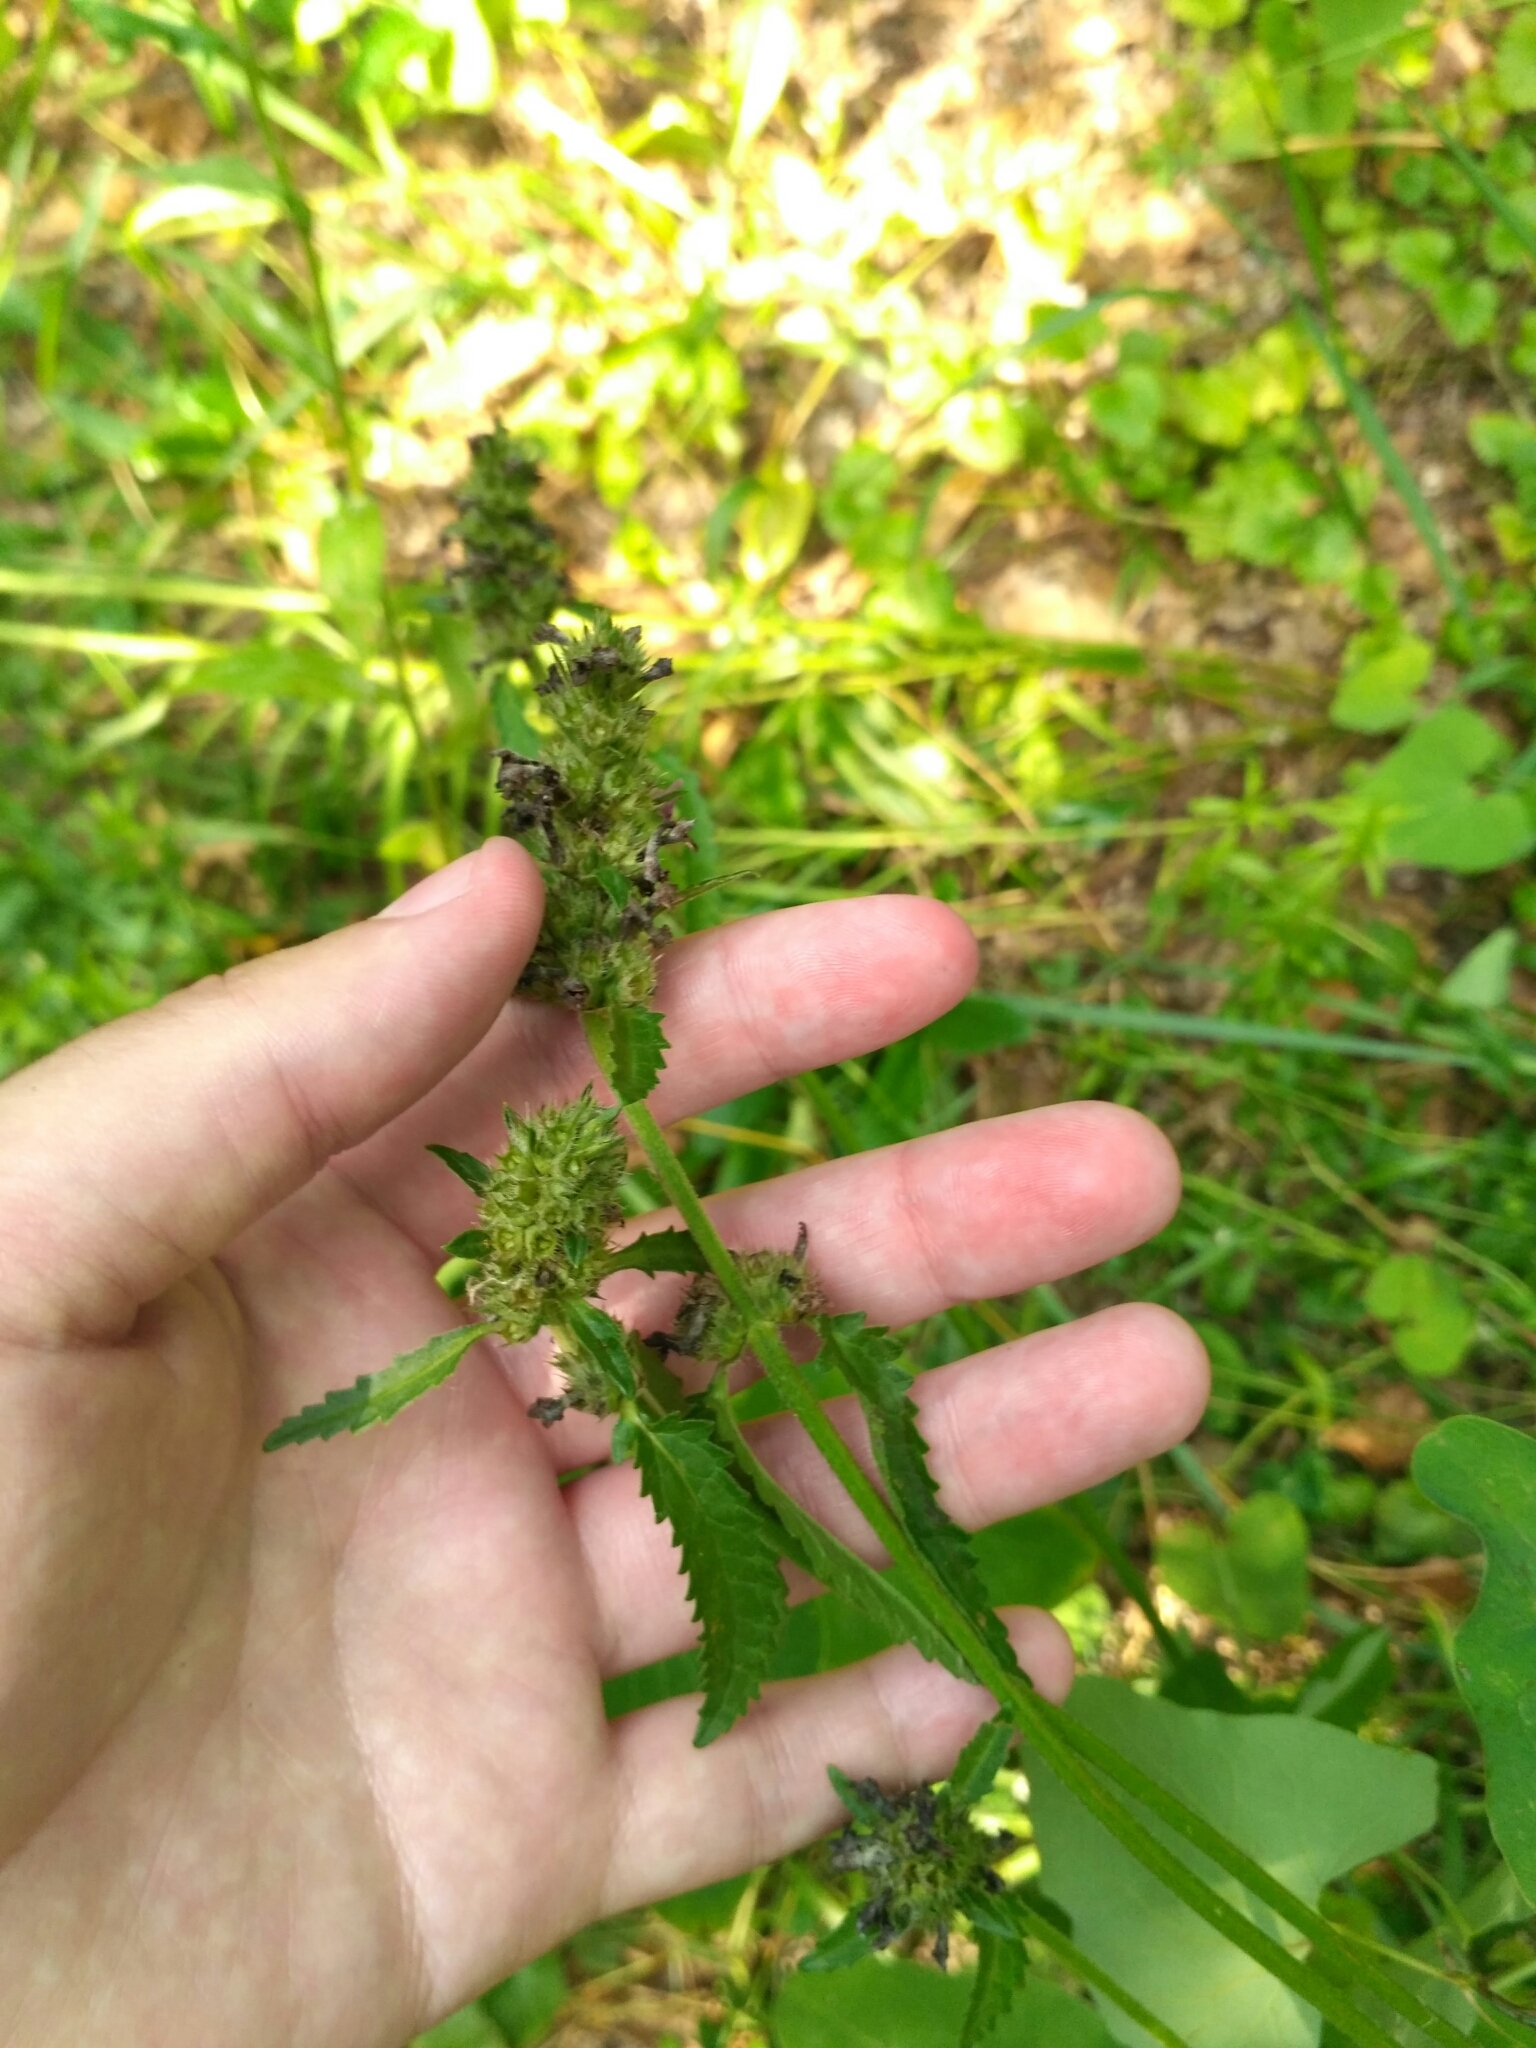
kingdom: Plantae
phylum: Tracheophyta
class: Magnoliopsida
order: Lamiales
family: Lamiaceae
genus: Betonica
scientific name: Betonica officinalis
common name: Bishop's-wort
